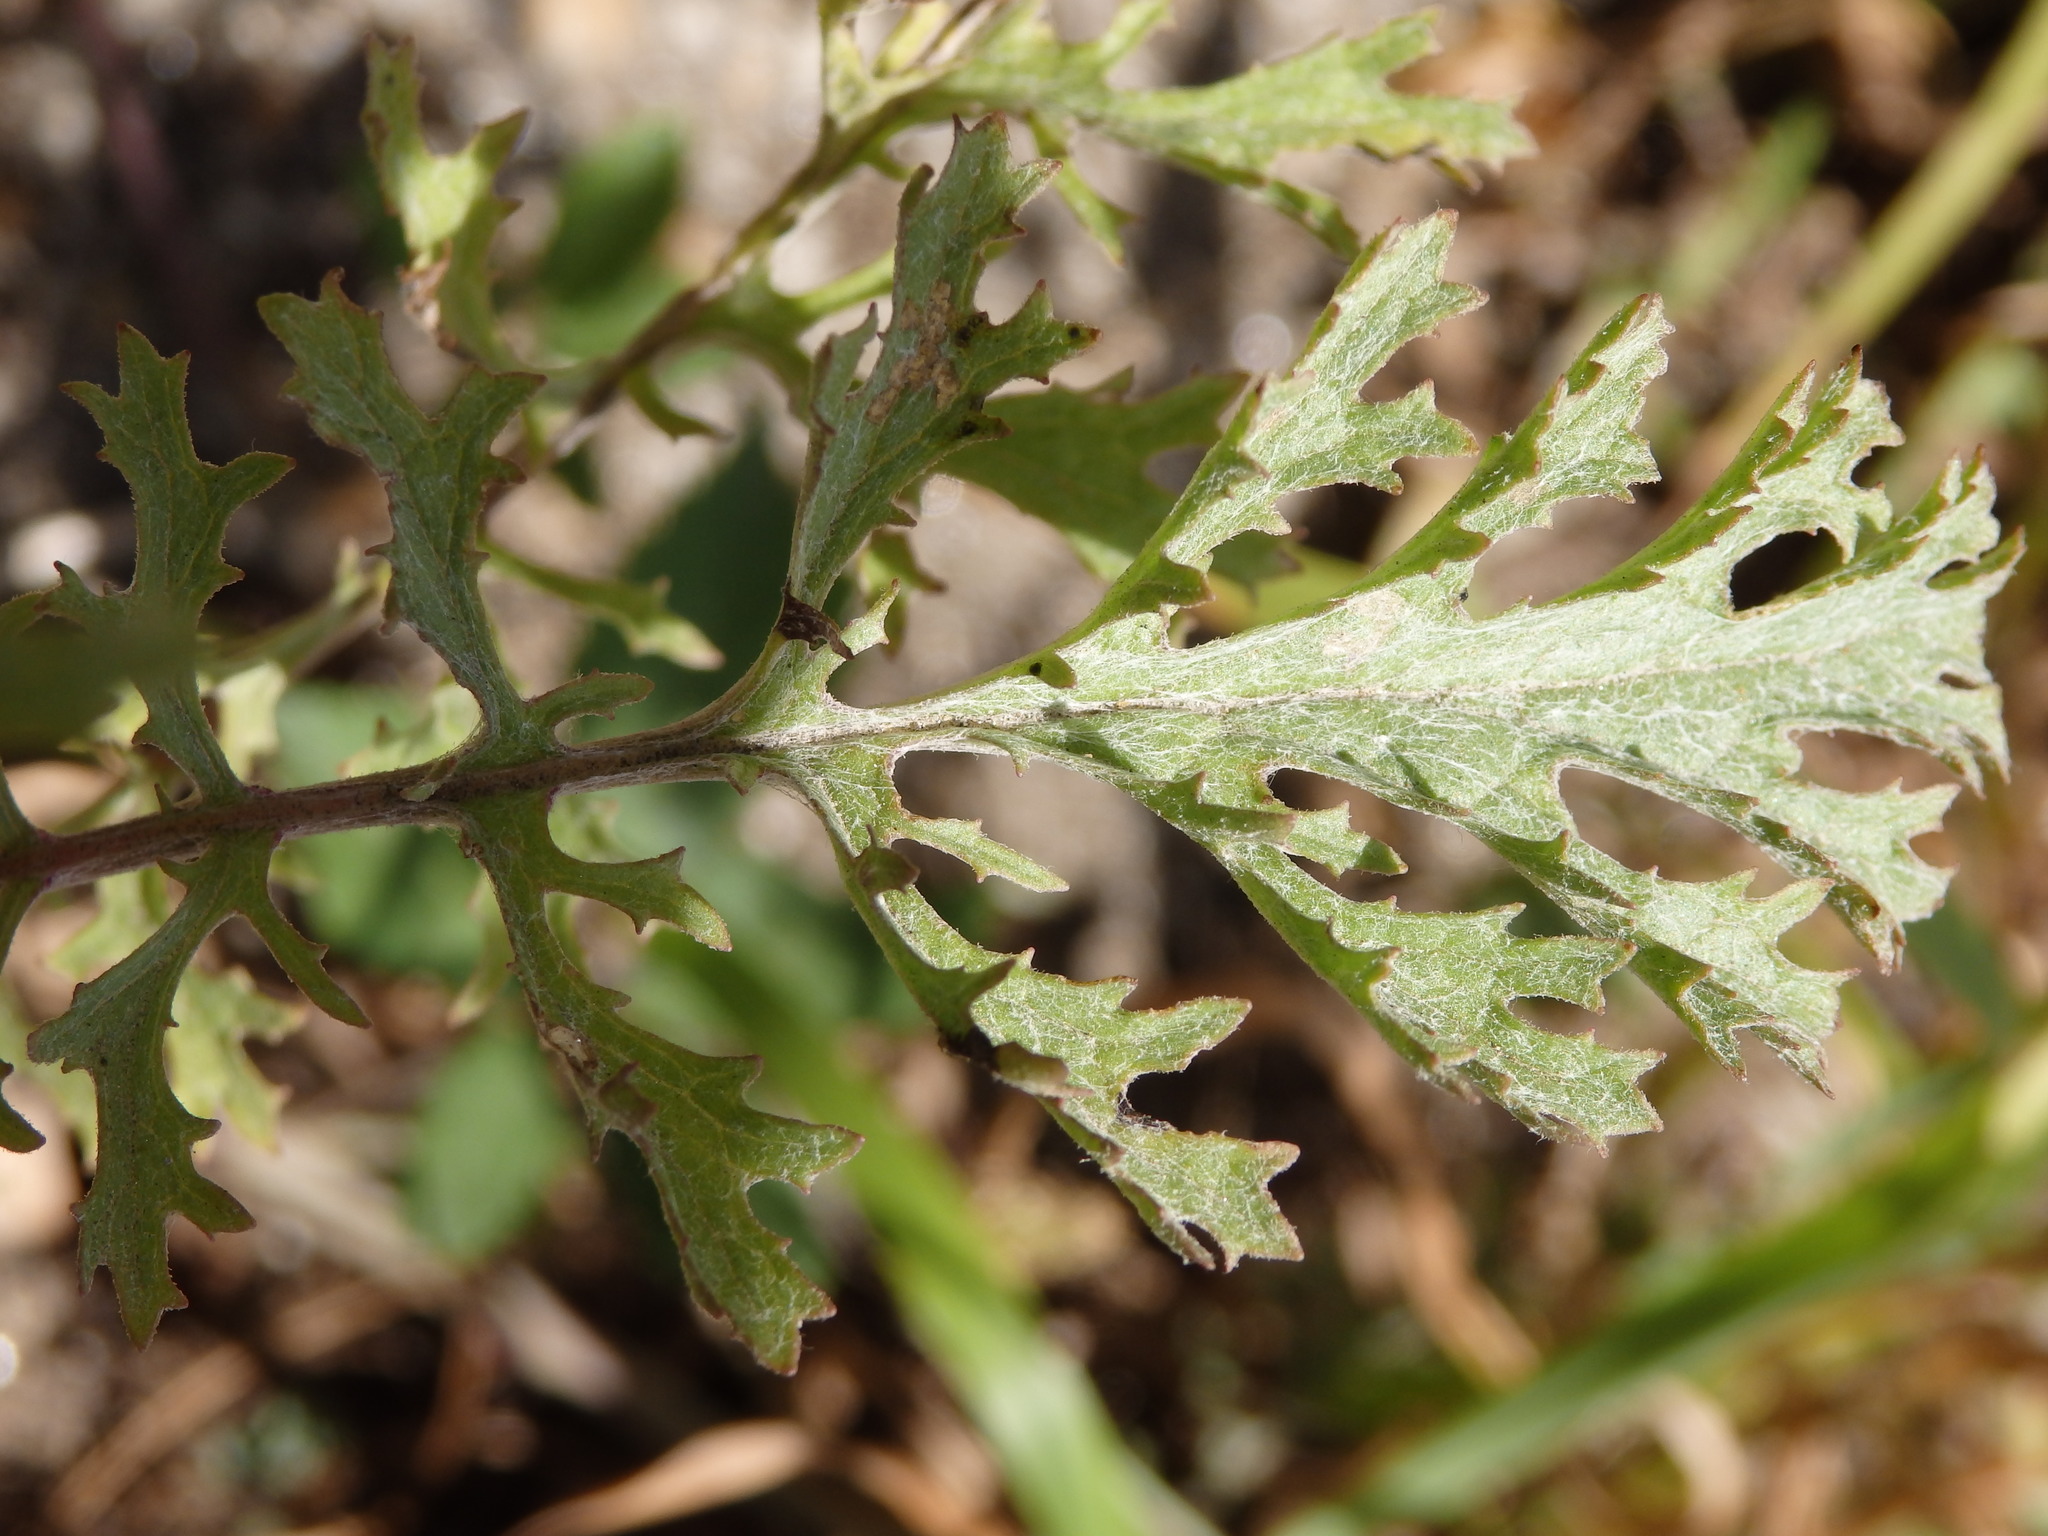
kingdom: Plantae
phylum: Tracheophyta
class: Magnoliopsida
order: Asterales
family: Asteraceae
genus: Jacobaea
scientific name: Jacobaea vulgaris
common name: Stinking willie
